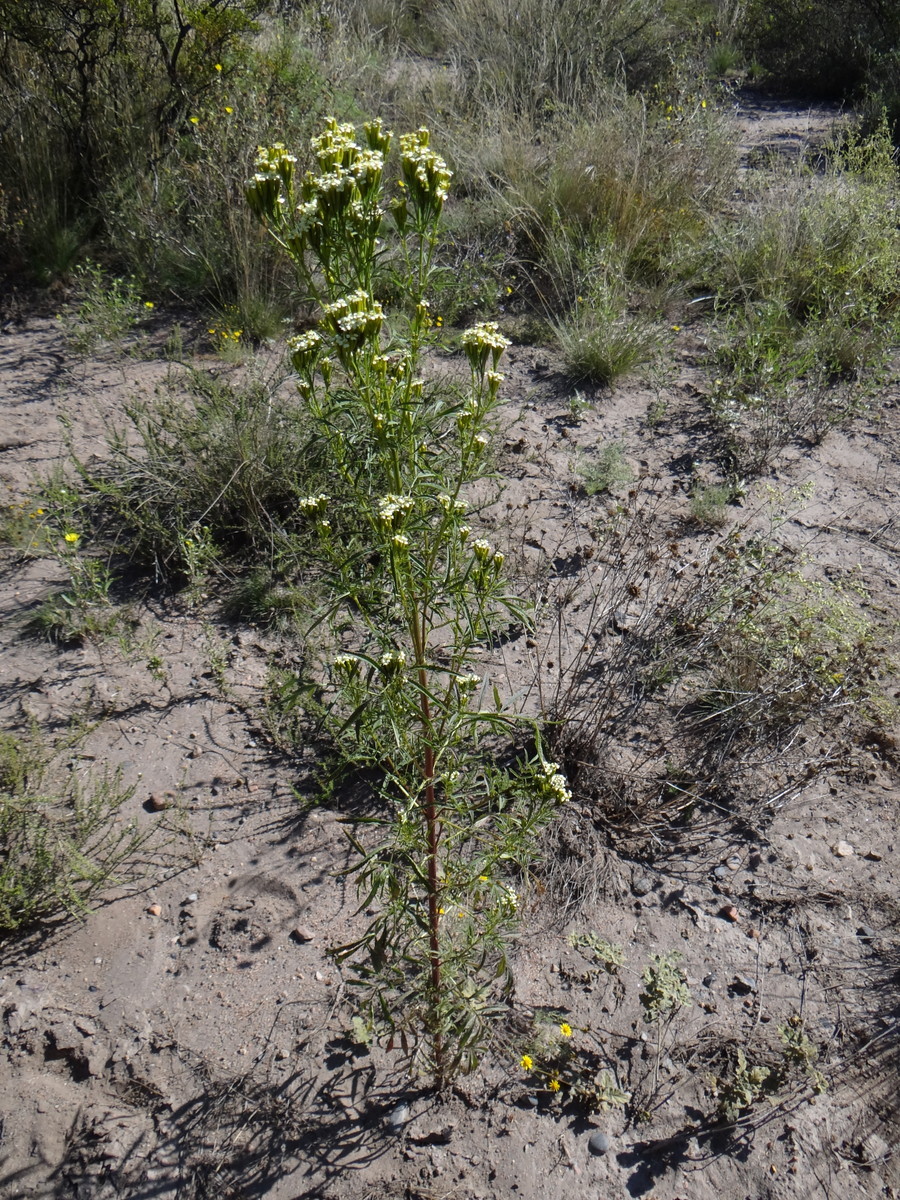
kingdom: Plantae
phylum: Tracheophyta
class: Magnoliopsida
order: Asterales
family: Asteraceae
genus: Tagetes
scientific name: Tagetes minuta
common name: Muster john henry
